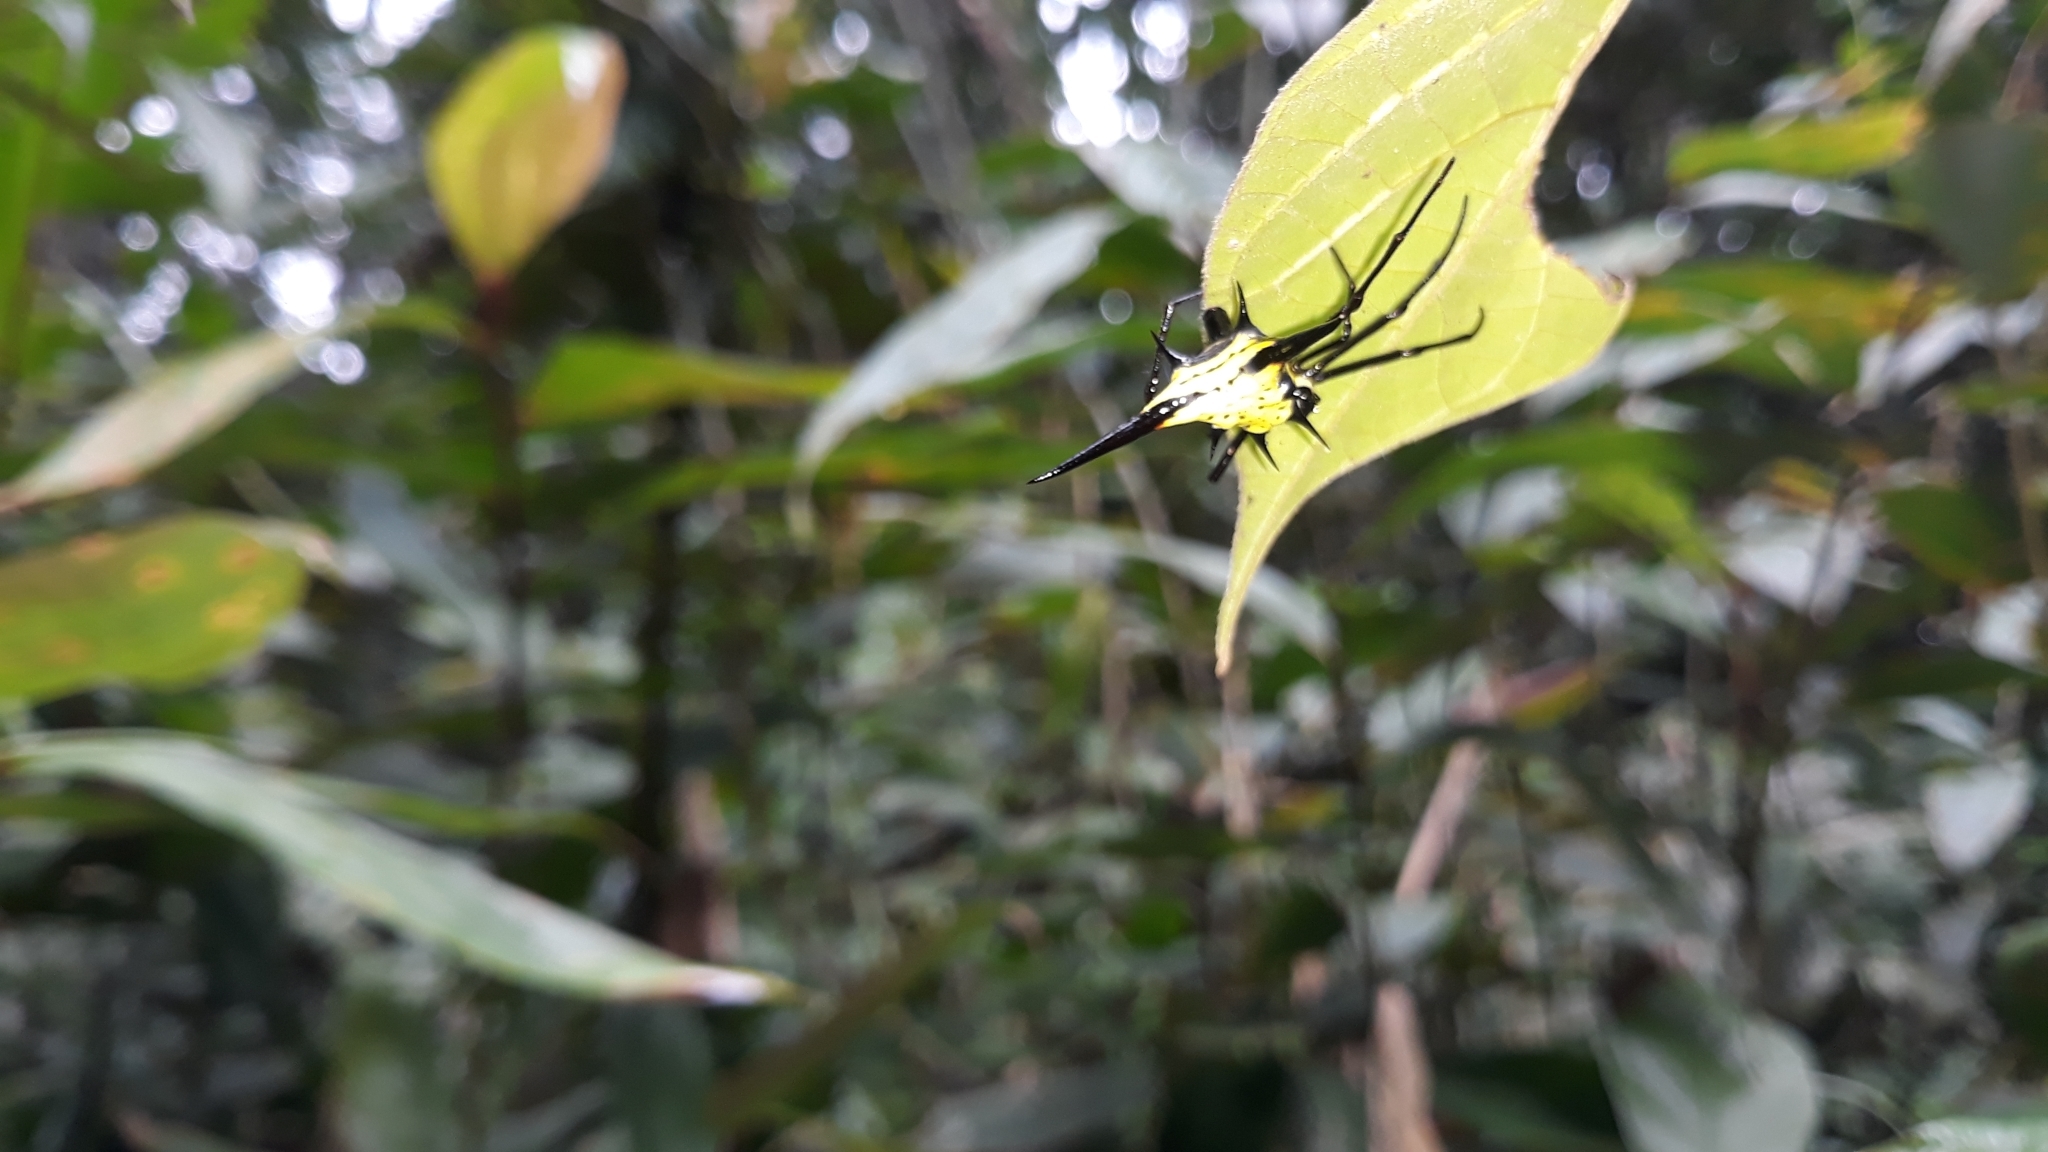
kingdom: Animalia
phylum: Arthropoda
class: Arachnida
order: Araneae
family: Araneidae
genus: Micrathena
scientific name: Micrathena schreibersi
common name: Orb weavers
